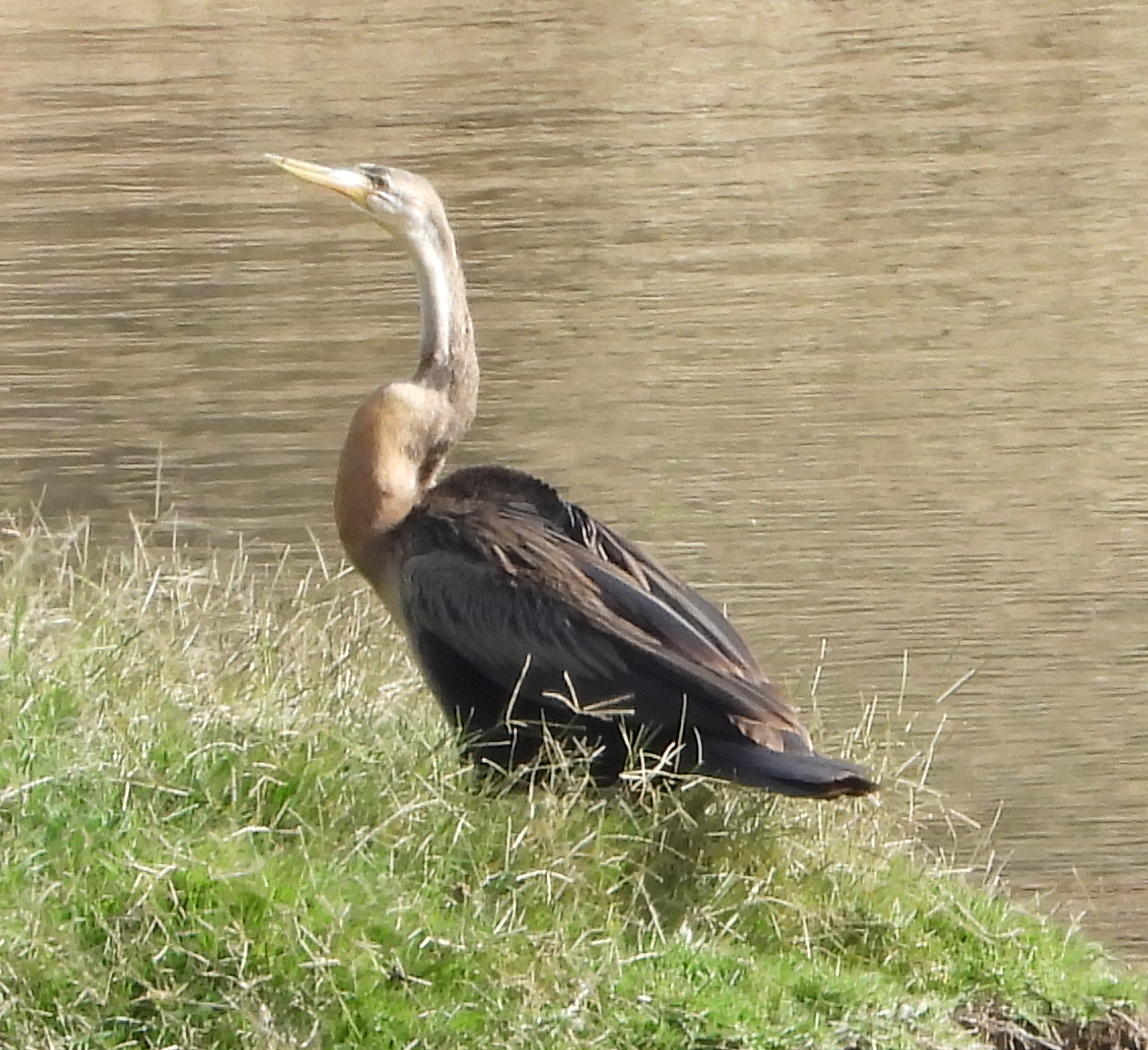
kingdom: Animalia
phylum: Chordata
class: Aves
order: Suliformes
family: Anhingidae
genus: Anhinga
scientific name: Anhinga rufa
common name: African darter
